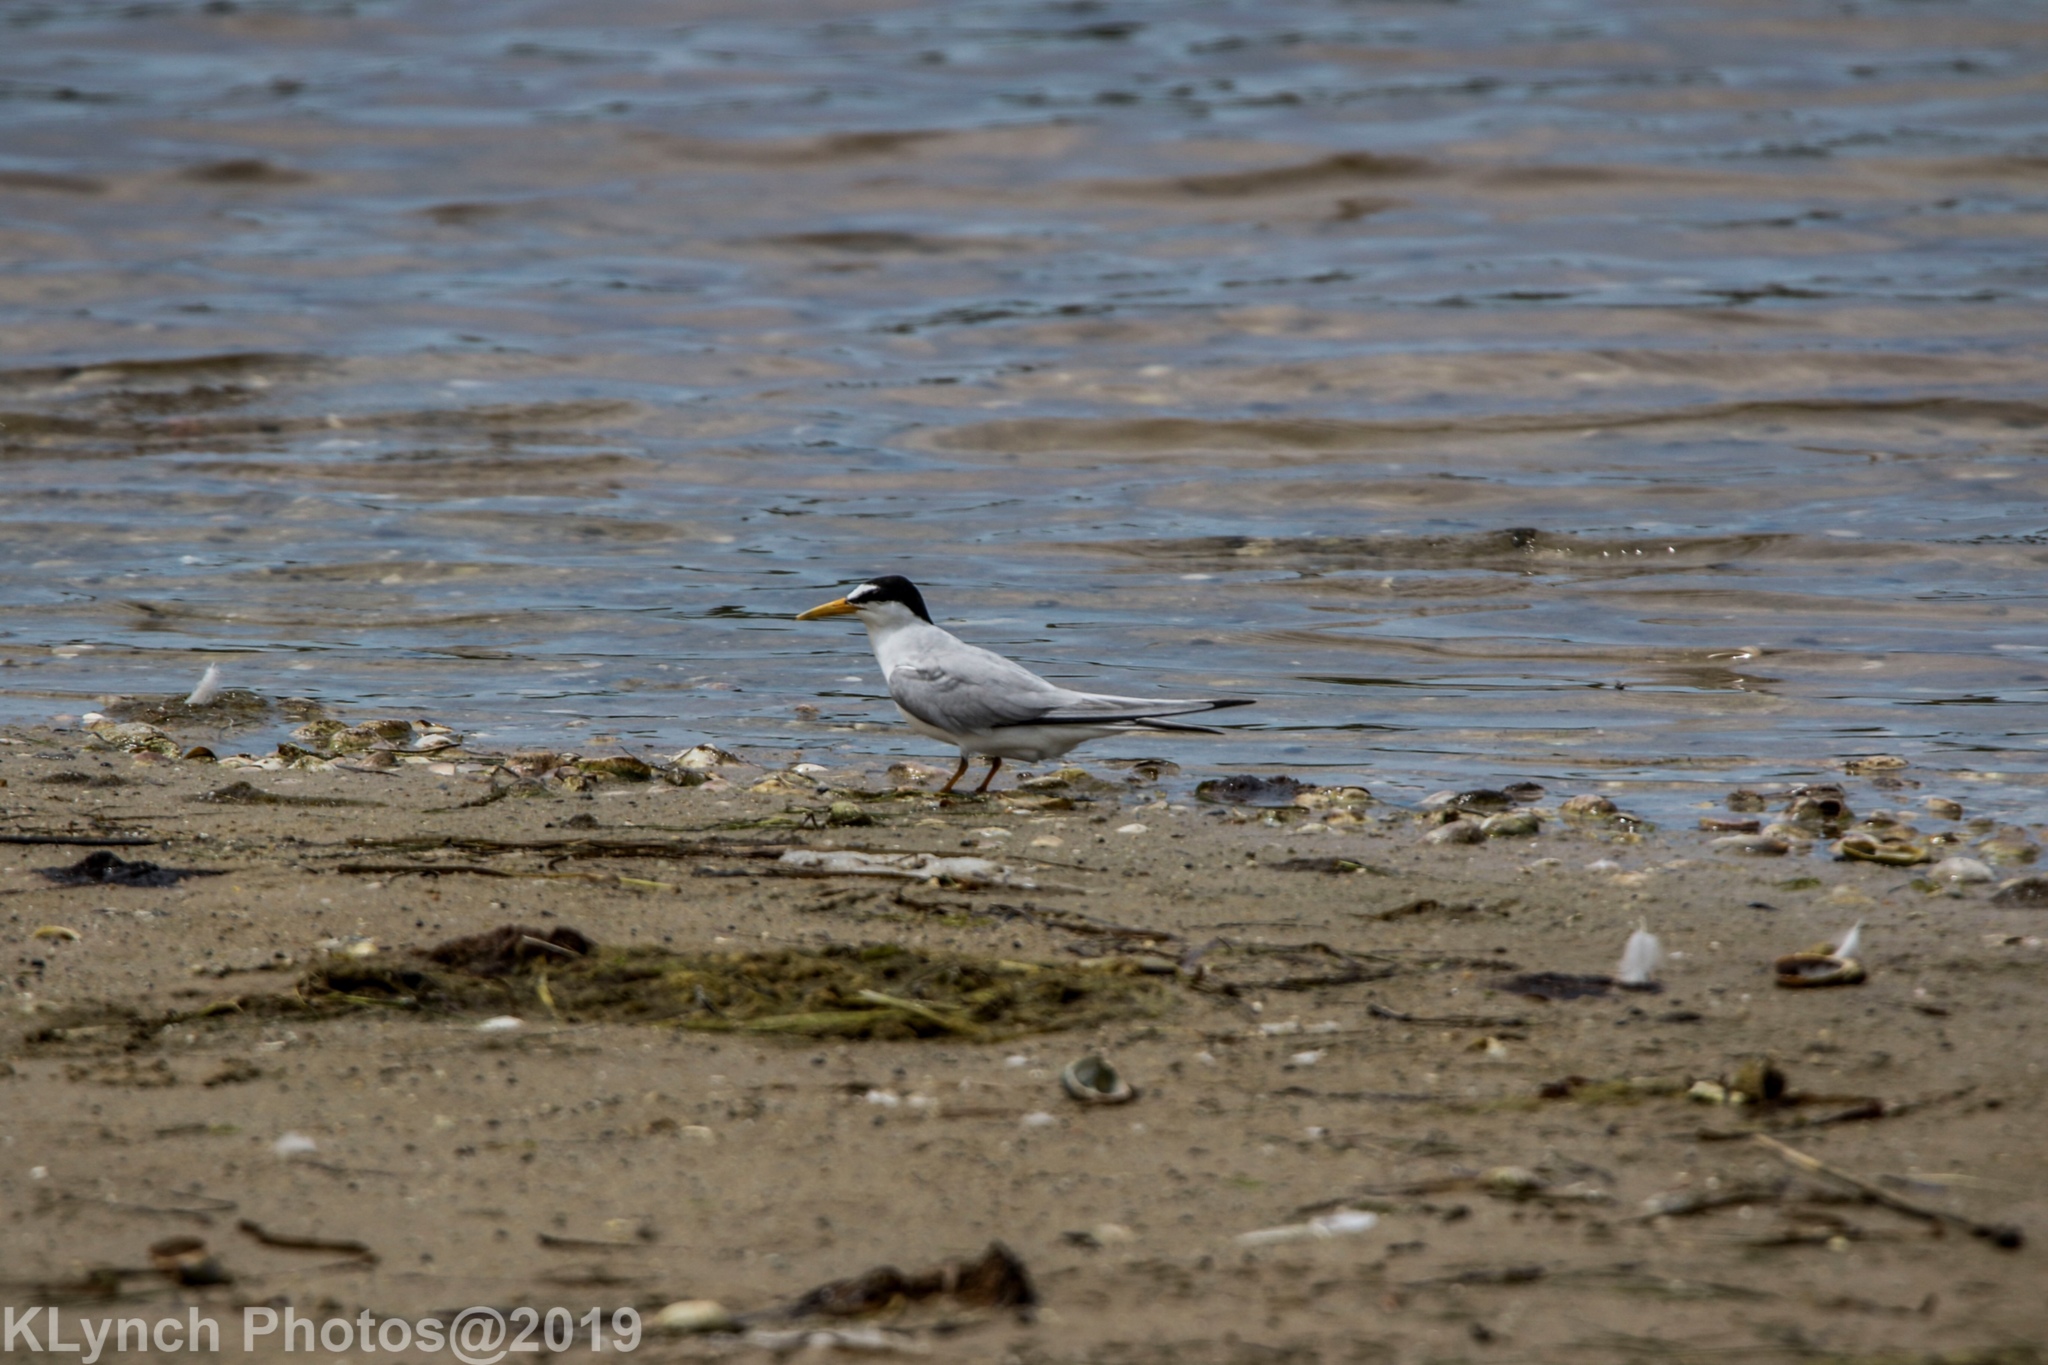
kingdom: Animalia
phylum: Chordata
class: Aves
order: Charadriiformes
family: Laridae
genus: Sternula
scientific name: Sternula antillarum
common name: Least tern
